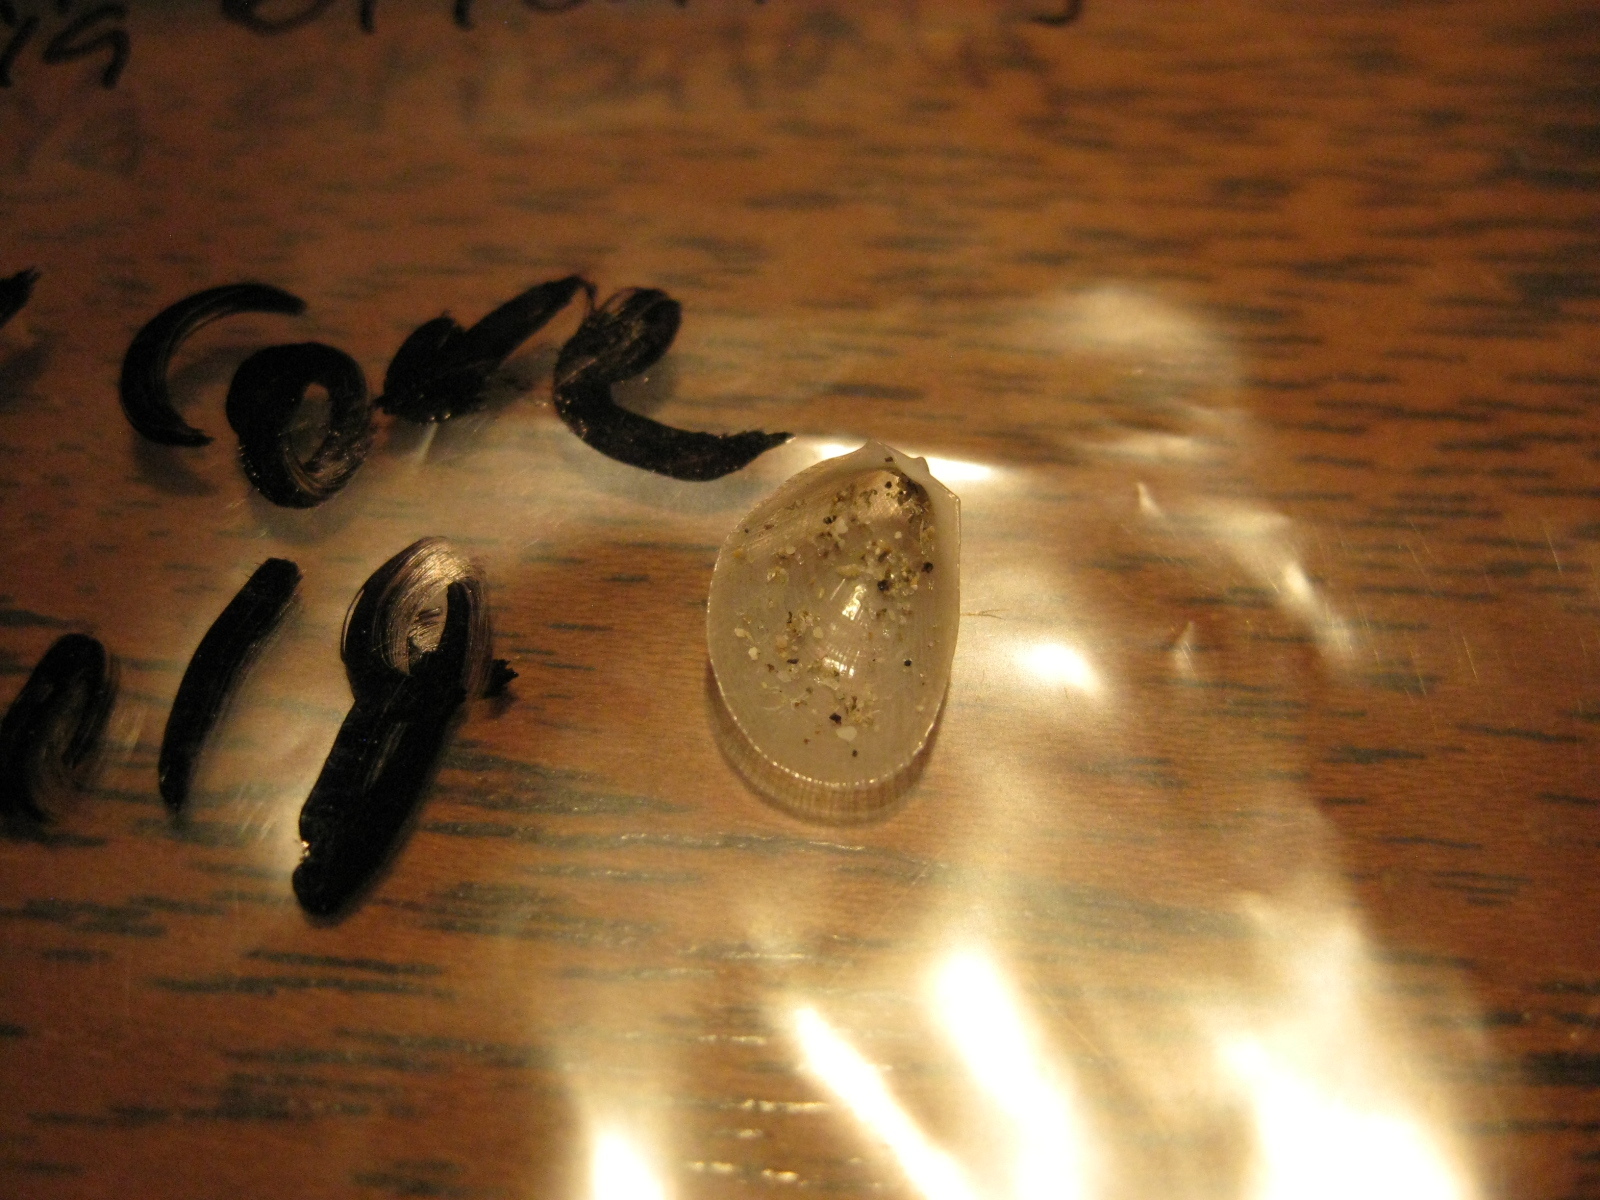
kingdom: Animalia
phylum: Mollusca
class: Bivalvia
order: Limida
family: Limidae
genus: Limaria
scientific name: Limaria orientalis
